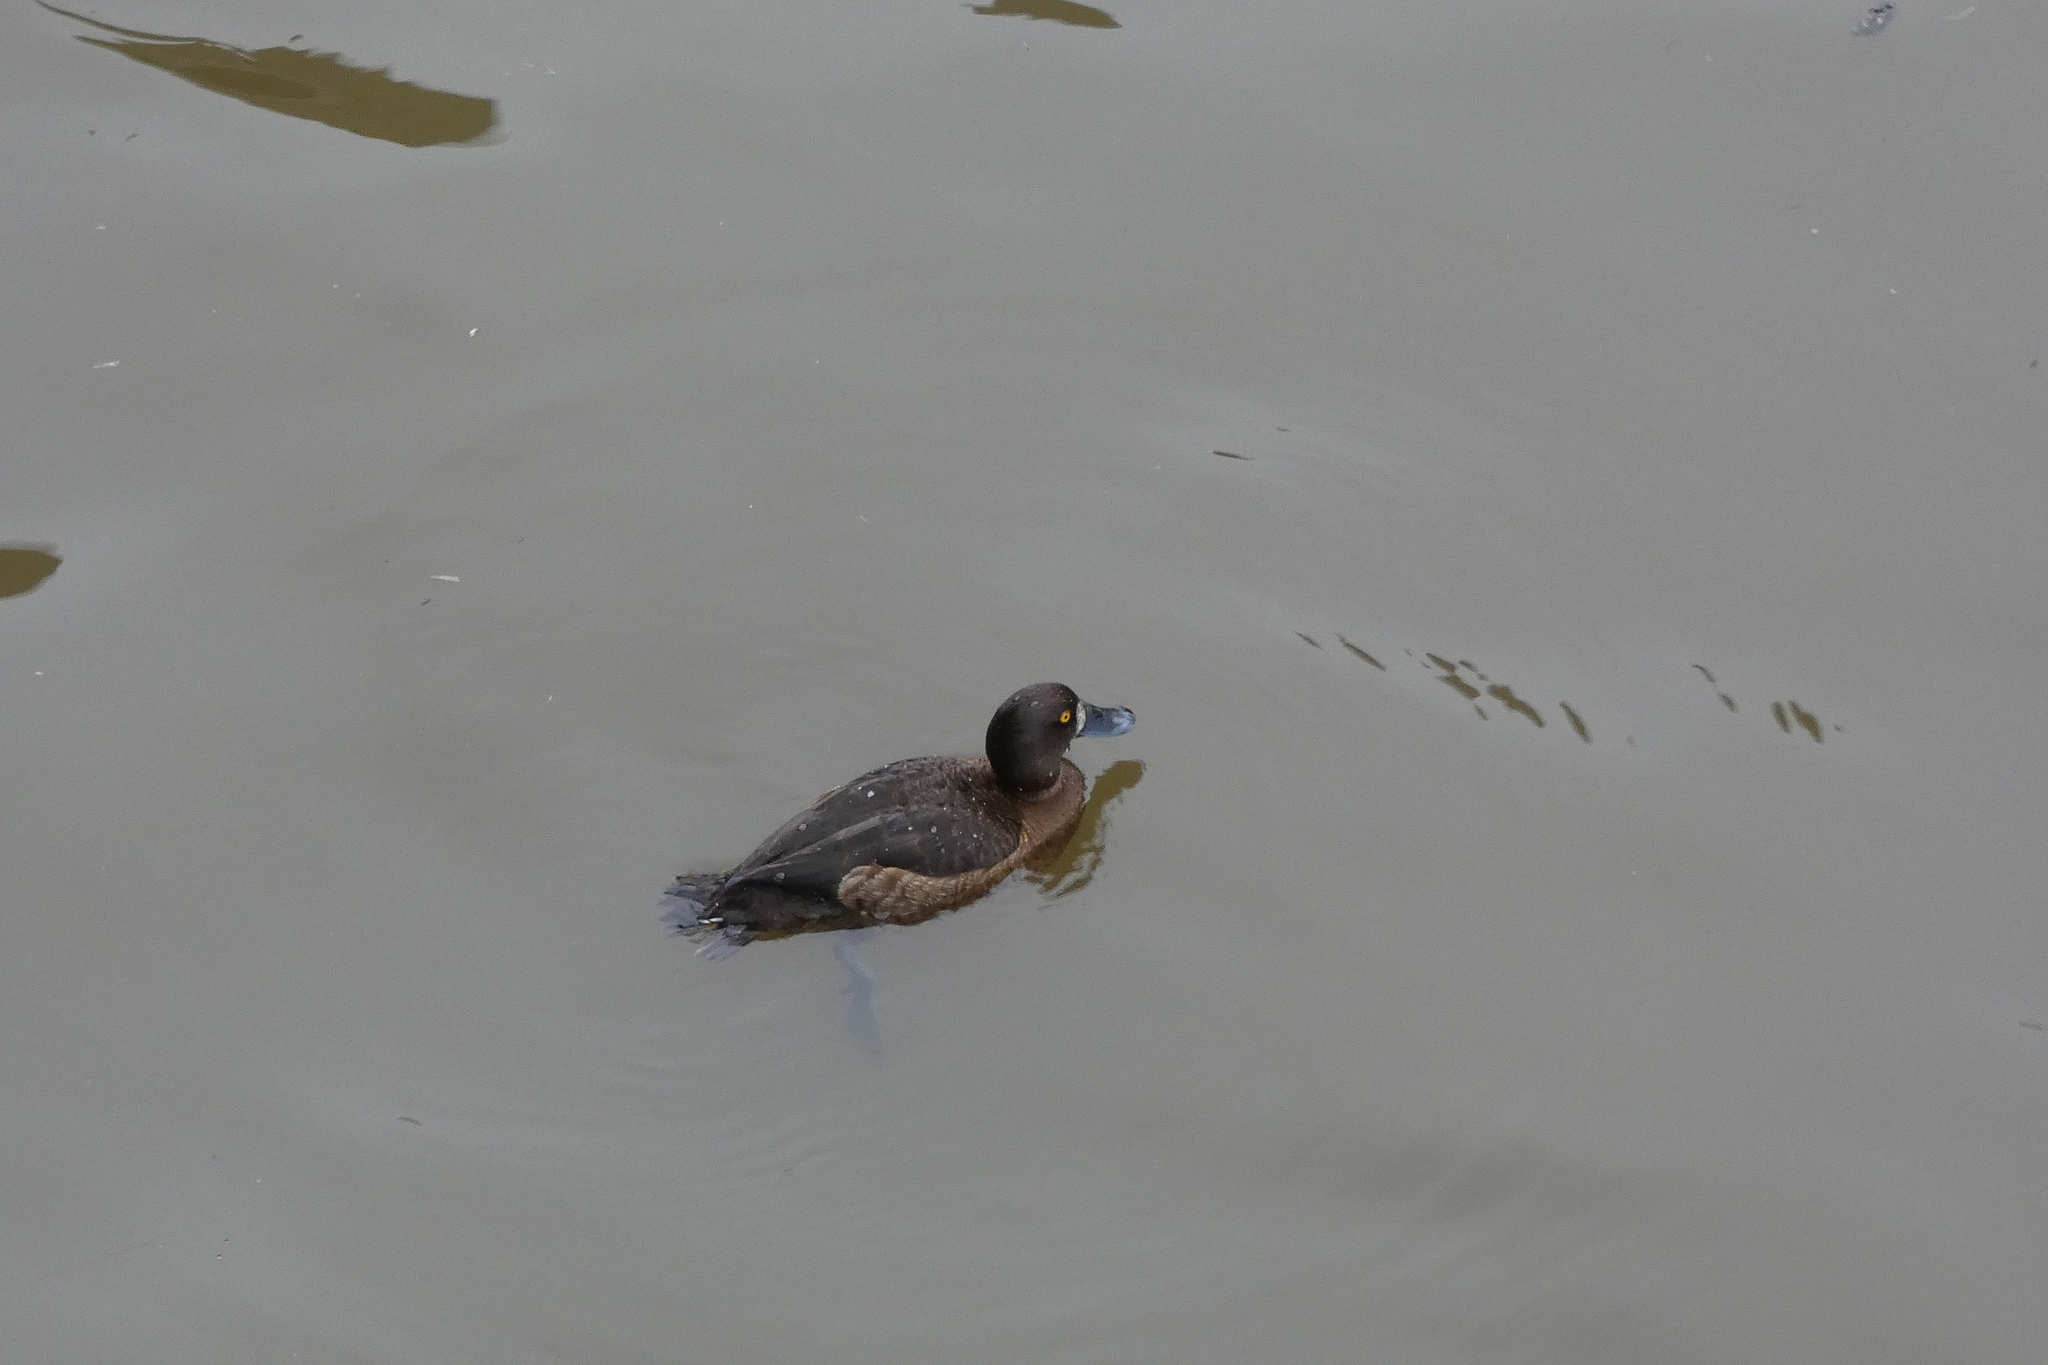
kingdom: Animalia
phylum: Chordata
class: Aves
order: Anseriformes
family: Anatidae
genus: Aythya
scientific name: Aythya fuligula
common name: Tufted duck
